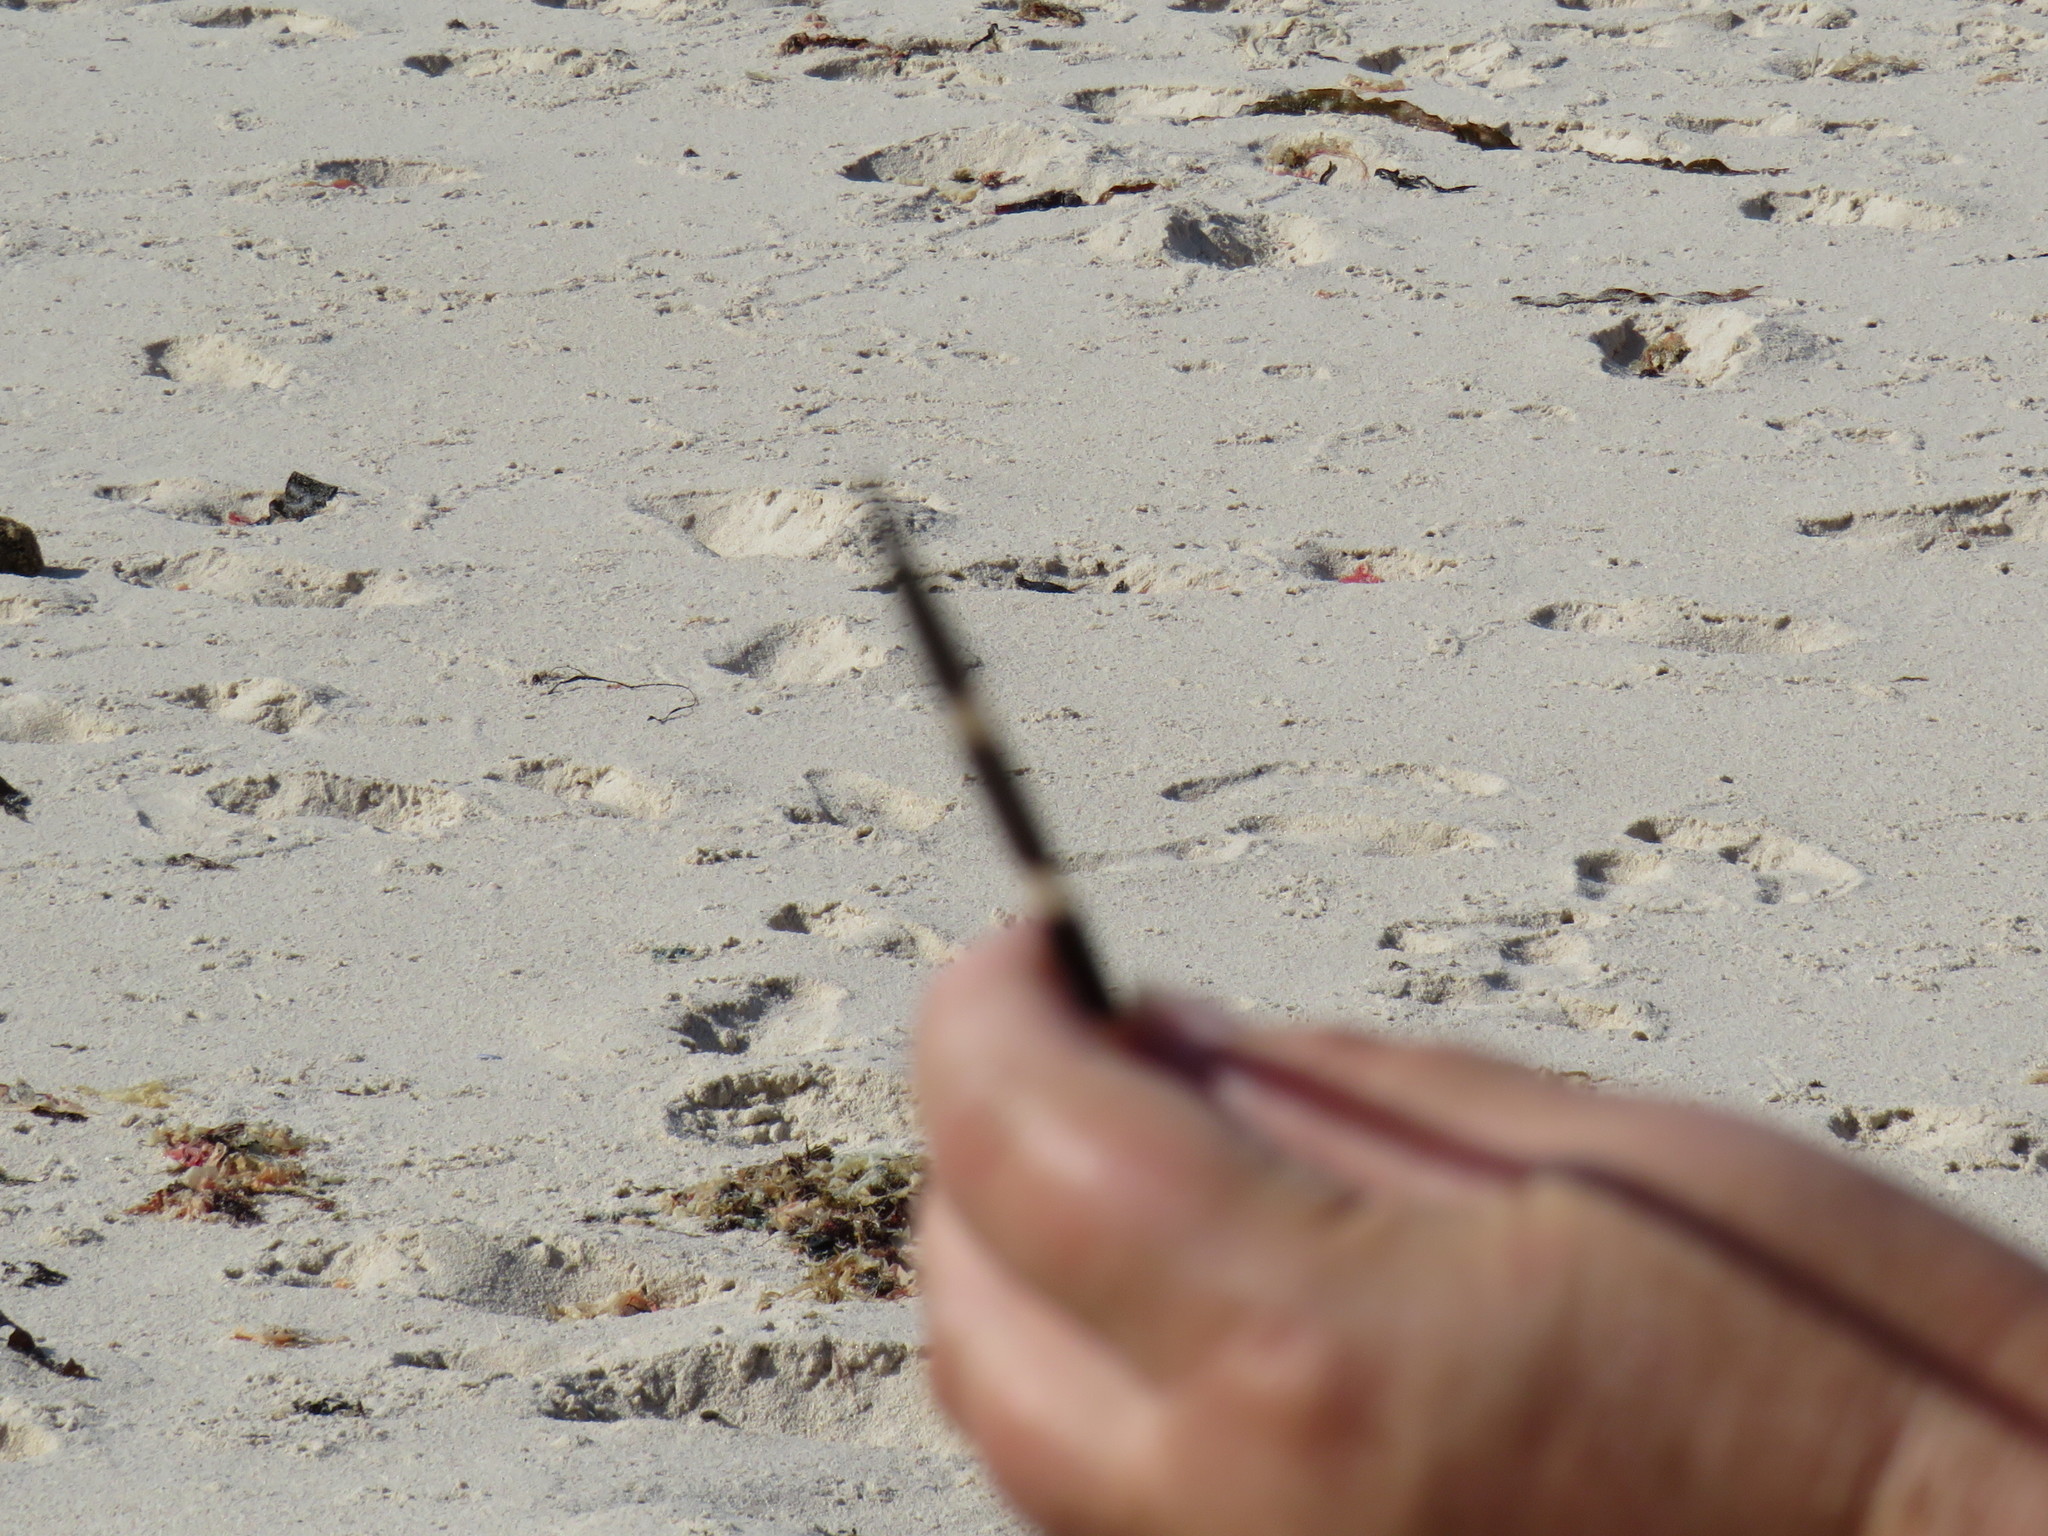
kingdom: Animalia
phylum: Chordata
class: Mammalia
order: Rodentia
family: Hystricidae
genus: Hystrix
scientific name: Hystrix africaeaustralis
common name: Cape porcupine
